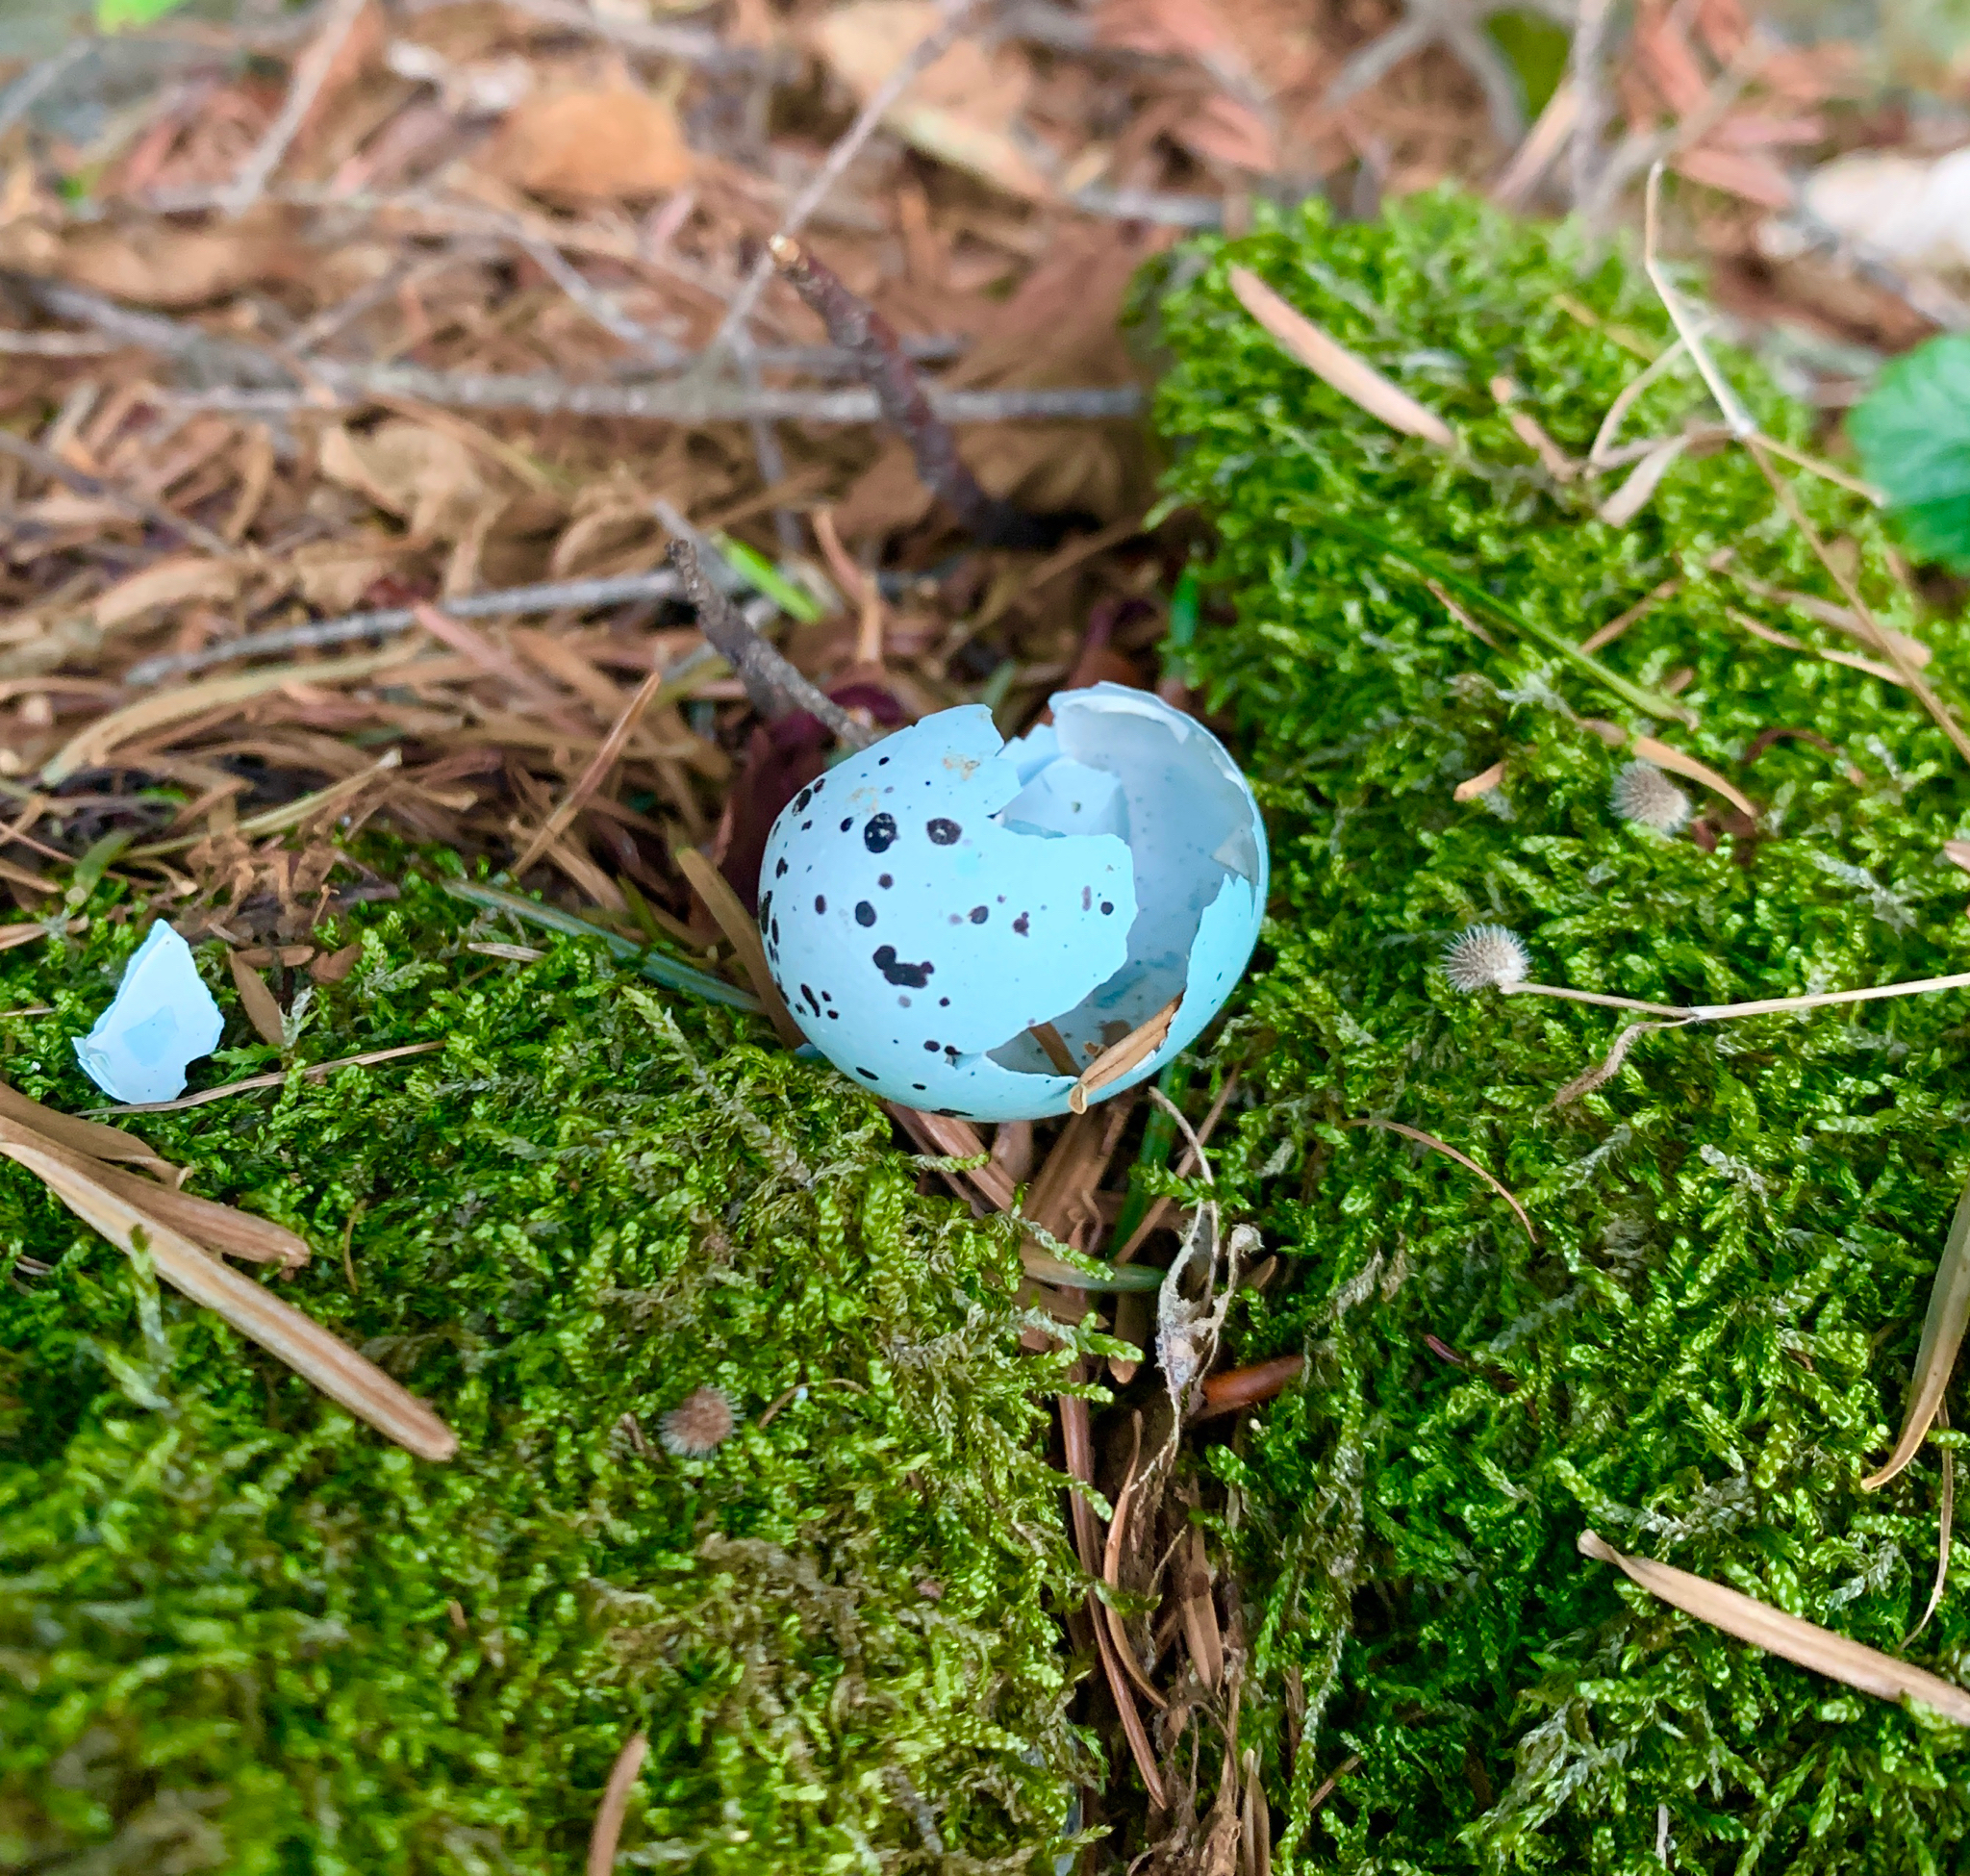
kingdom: Animalia
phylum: Chordata
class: Aves
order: Passeriformes
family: Turdidae
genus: Turdus
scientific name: Turdus philomelos
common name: Song thrush
